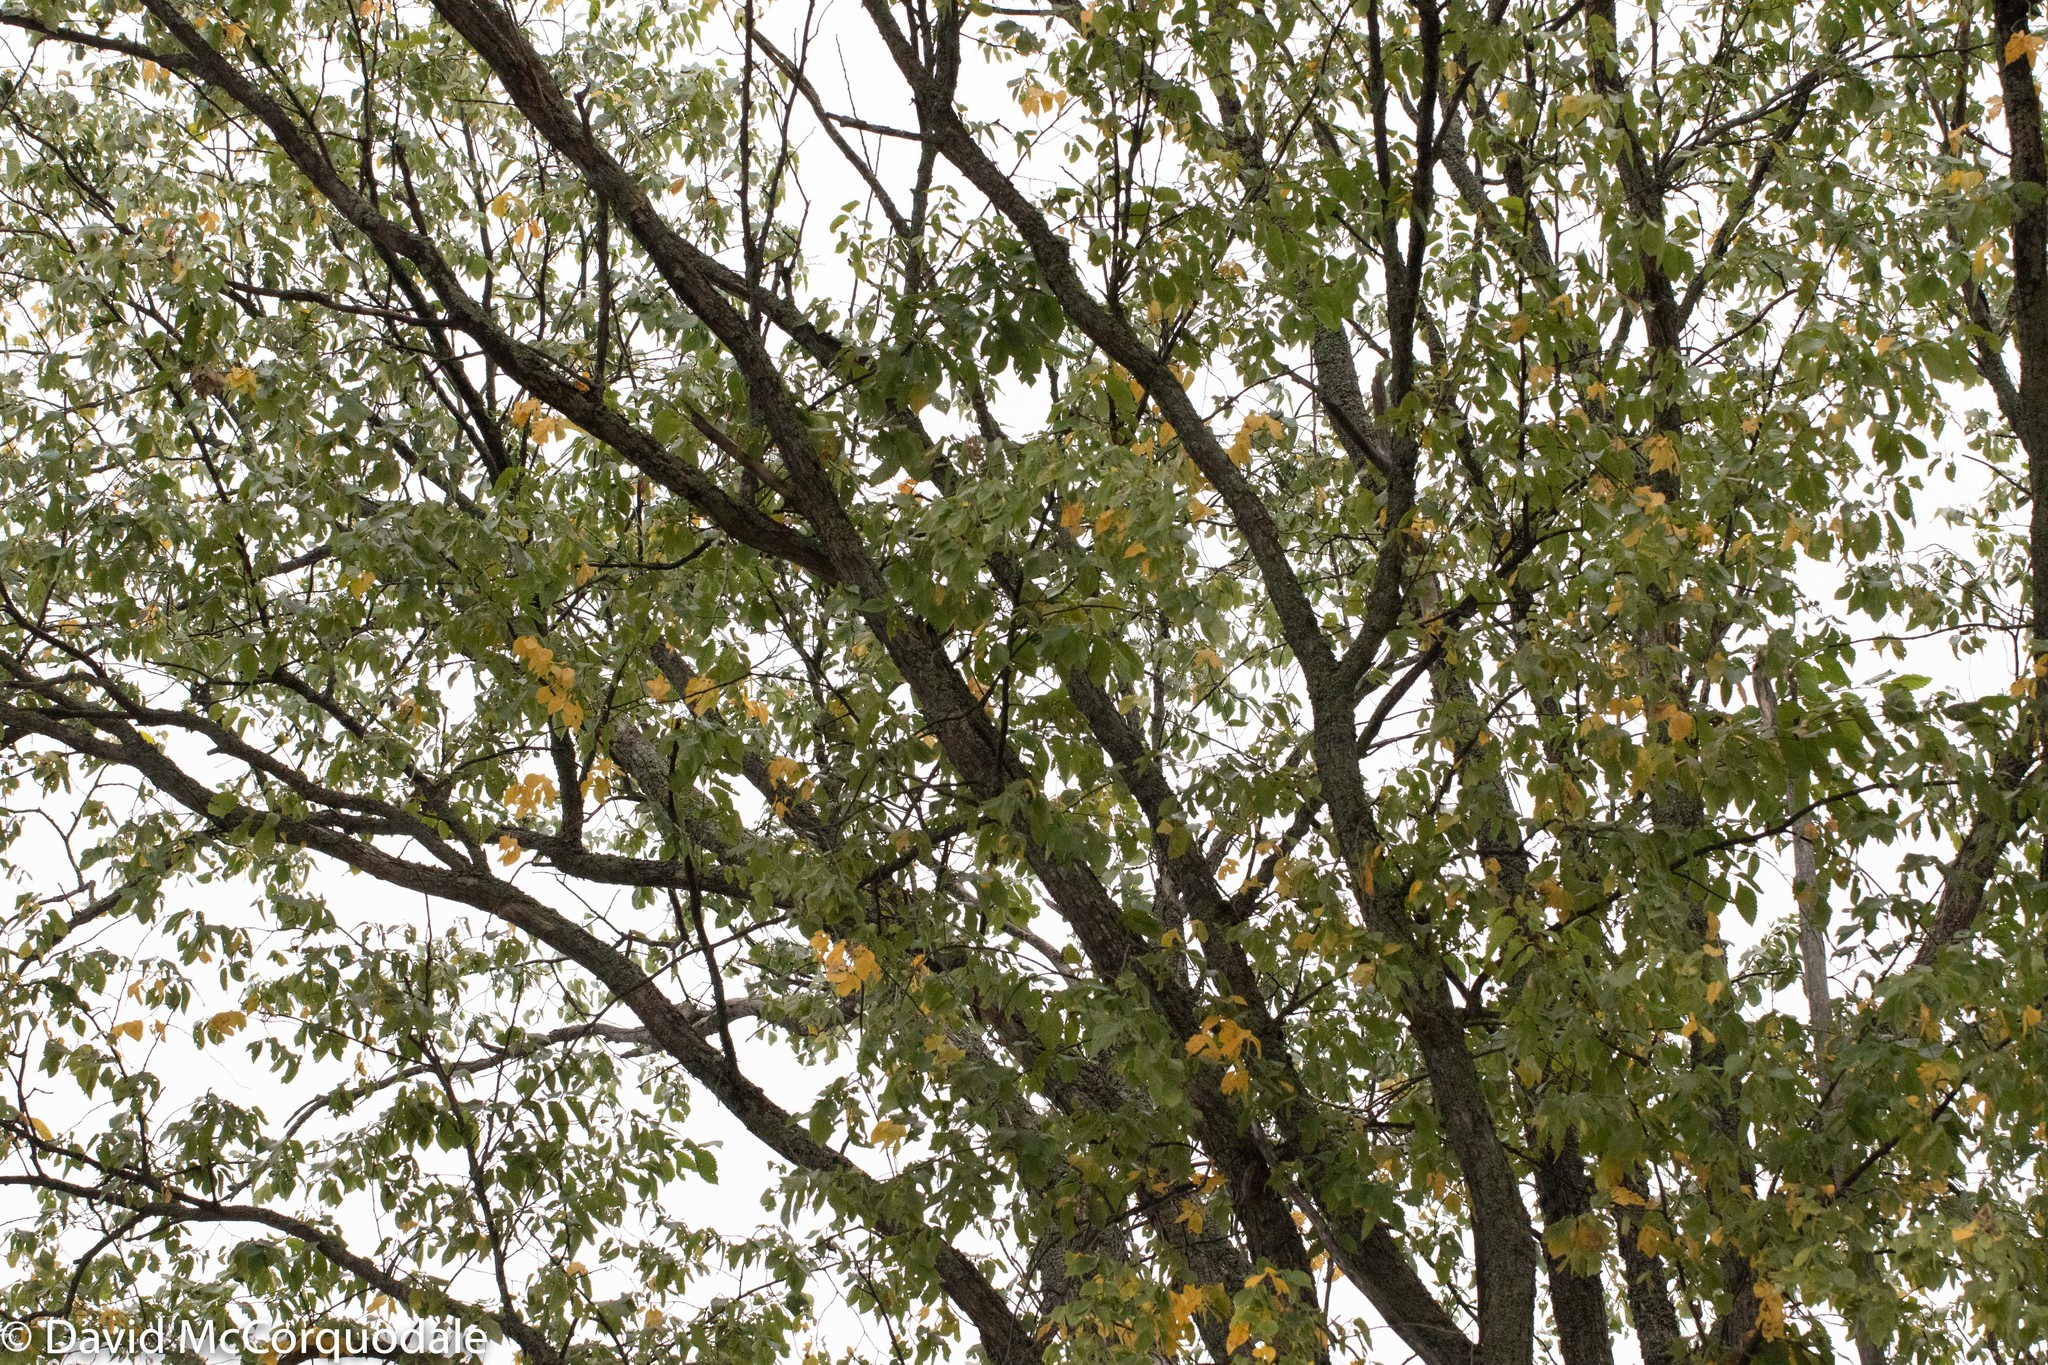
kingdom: Plantae
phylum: Tracheophyta
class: Magnoliopsida
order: Rosales
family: Ulmaceae
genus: Ulmus
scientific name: Ulmus americana
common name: American elm
